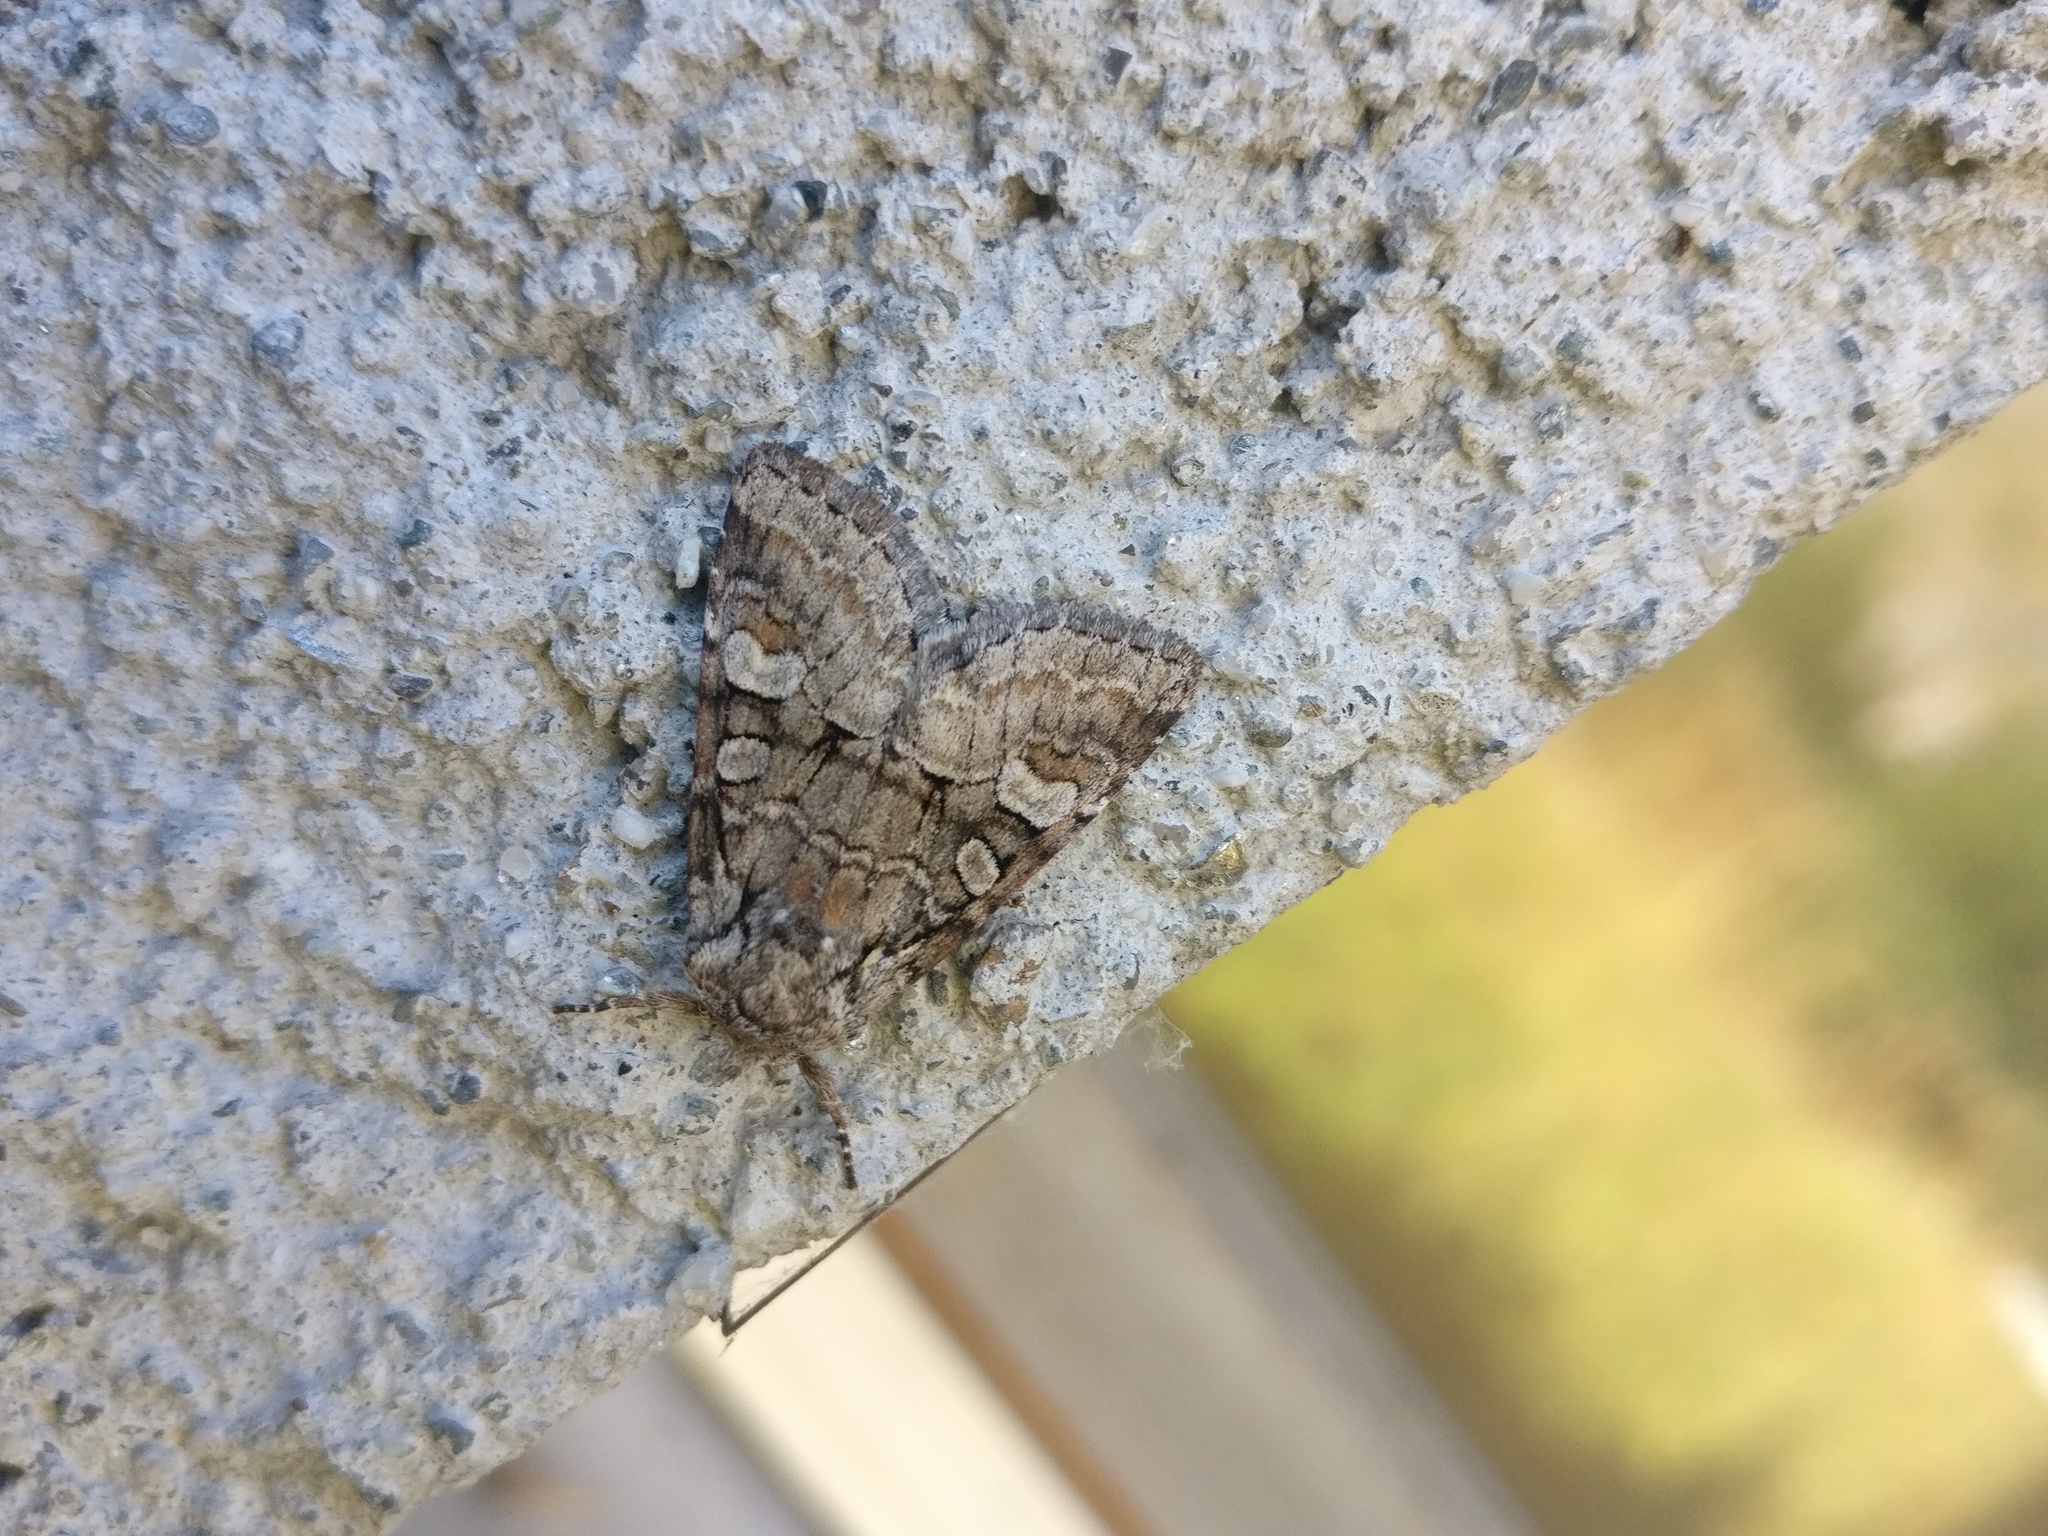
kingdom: Animalia
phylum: Arthropoda
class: Insecta
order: Lepidoptera
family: Noctuidae
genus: Brachylomia
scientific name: Brachylomia viminalis
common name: Minor shoulder-knot
